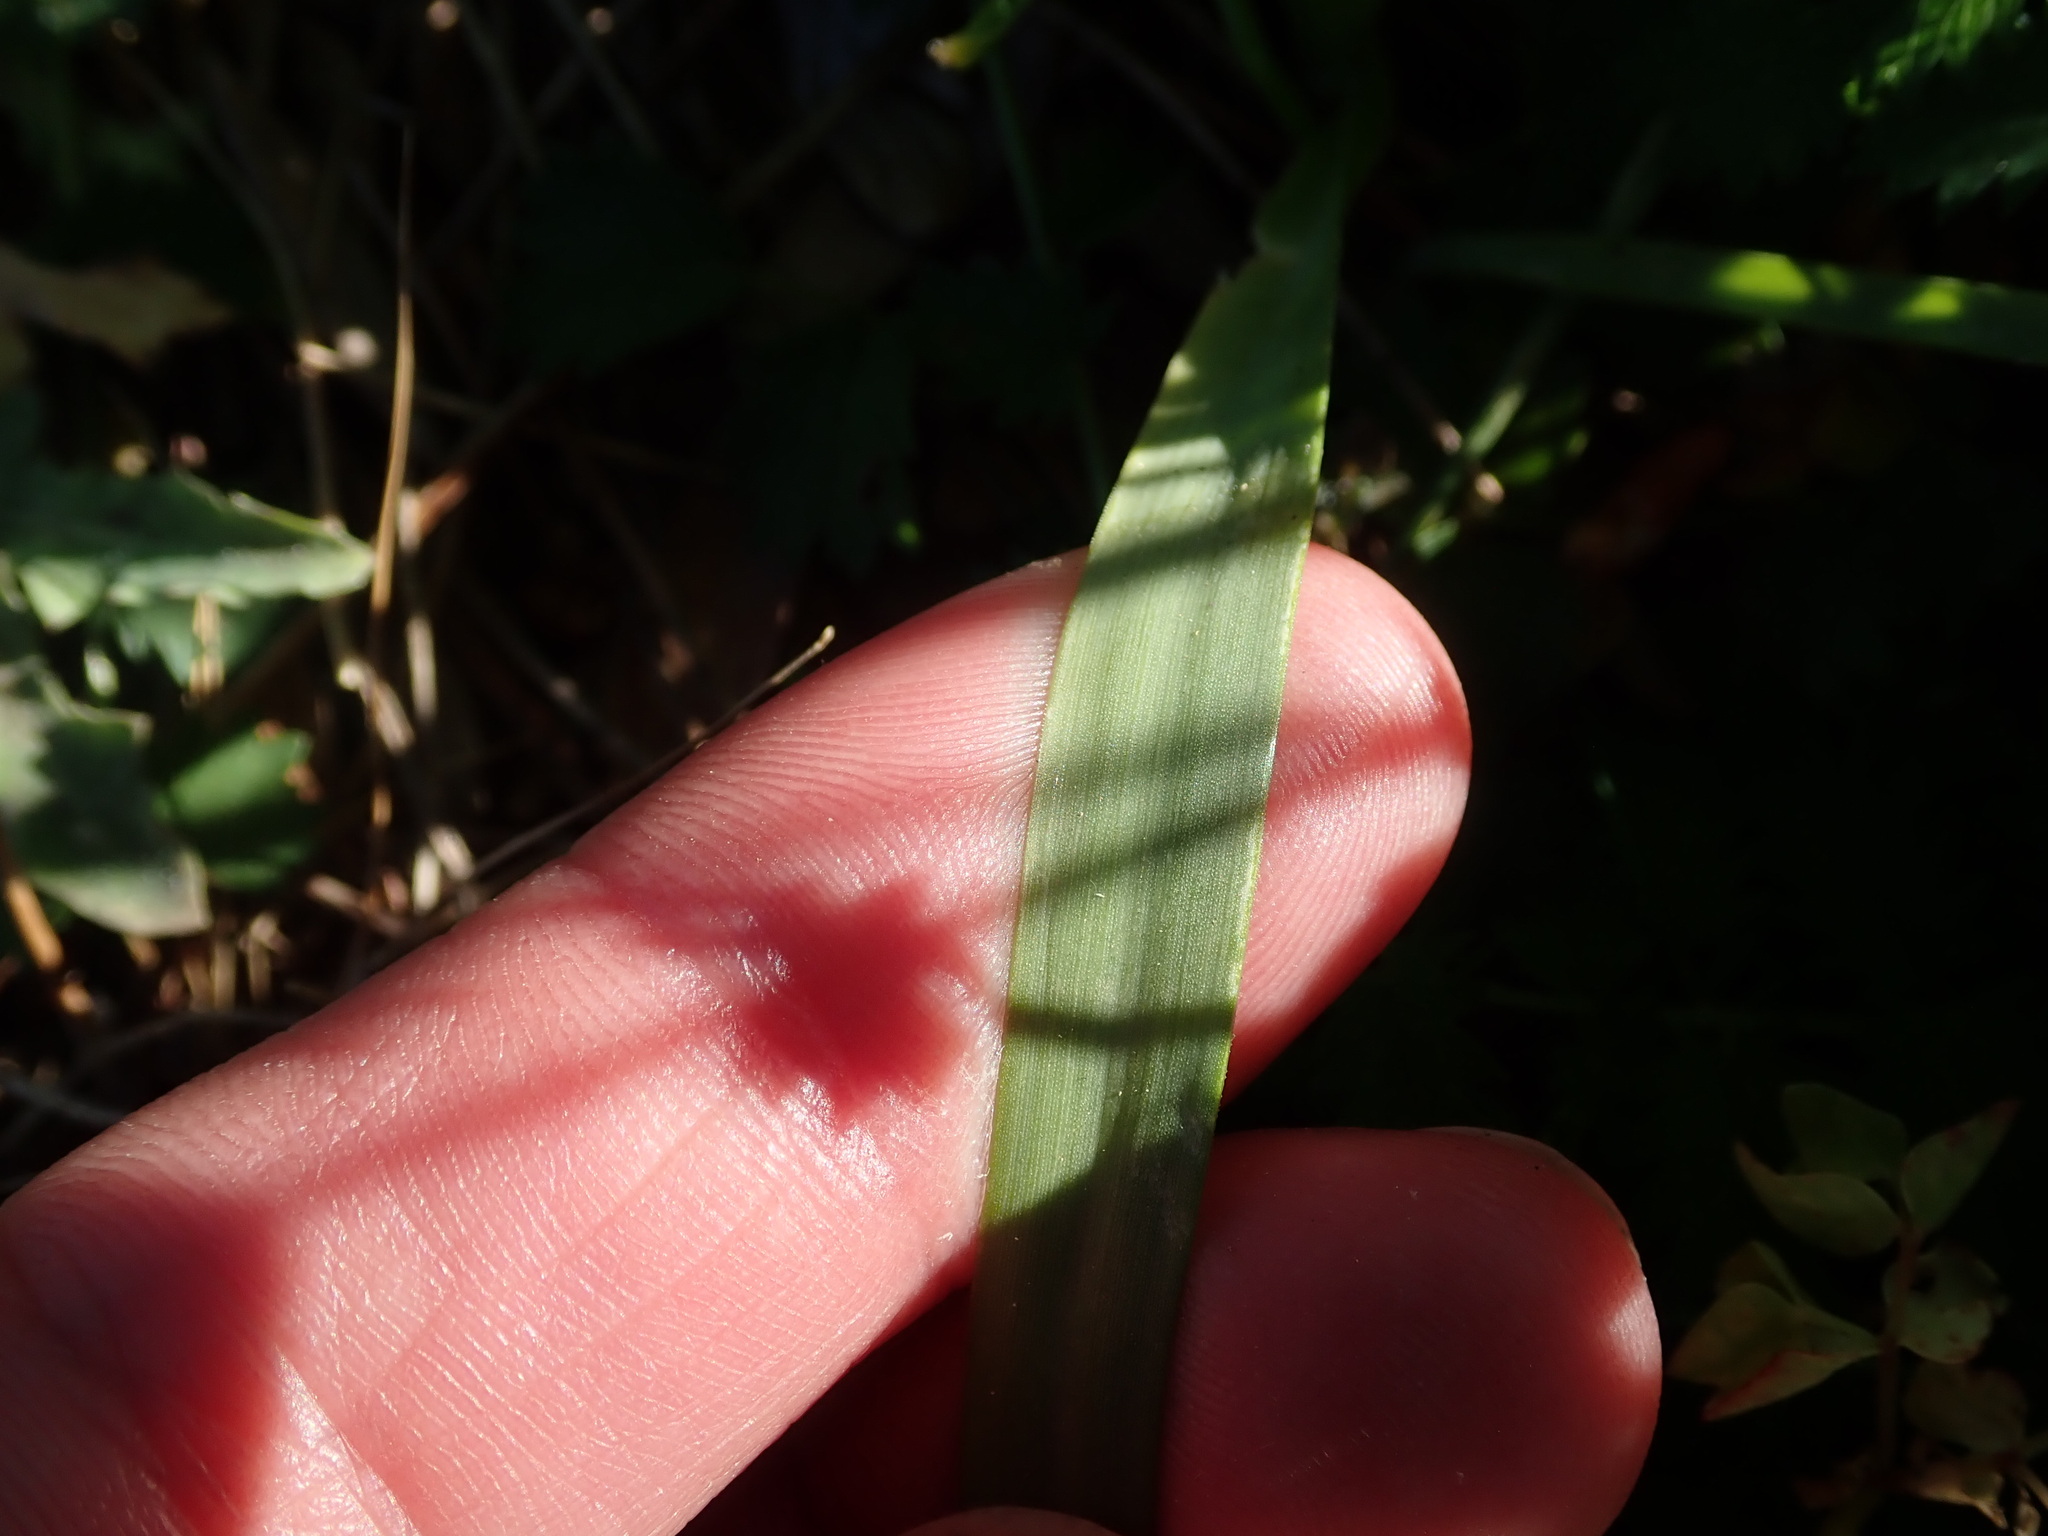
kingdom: Plantae
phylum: Tracheophyta
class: Liliopsida
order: Asparagales
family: Amaryllidaceae
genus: Allium
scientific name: Allium roseum
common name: Rosy garlic
